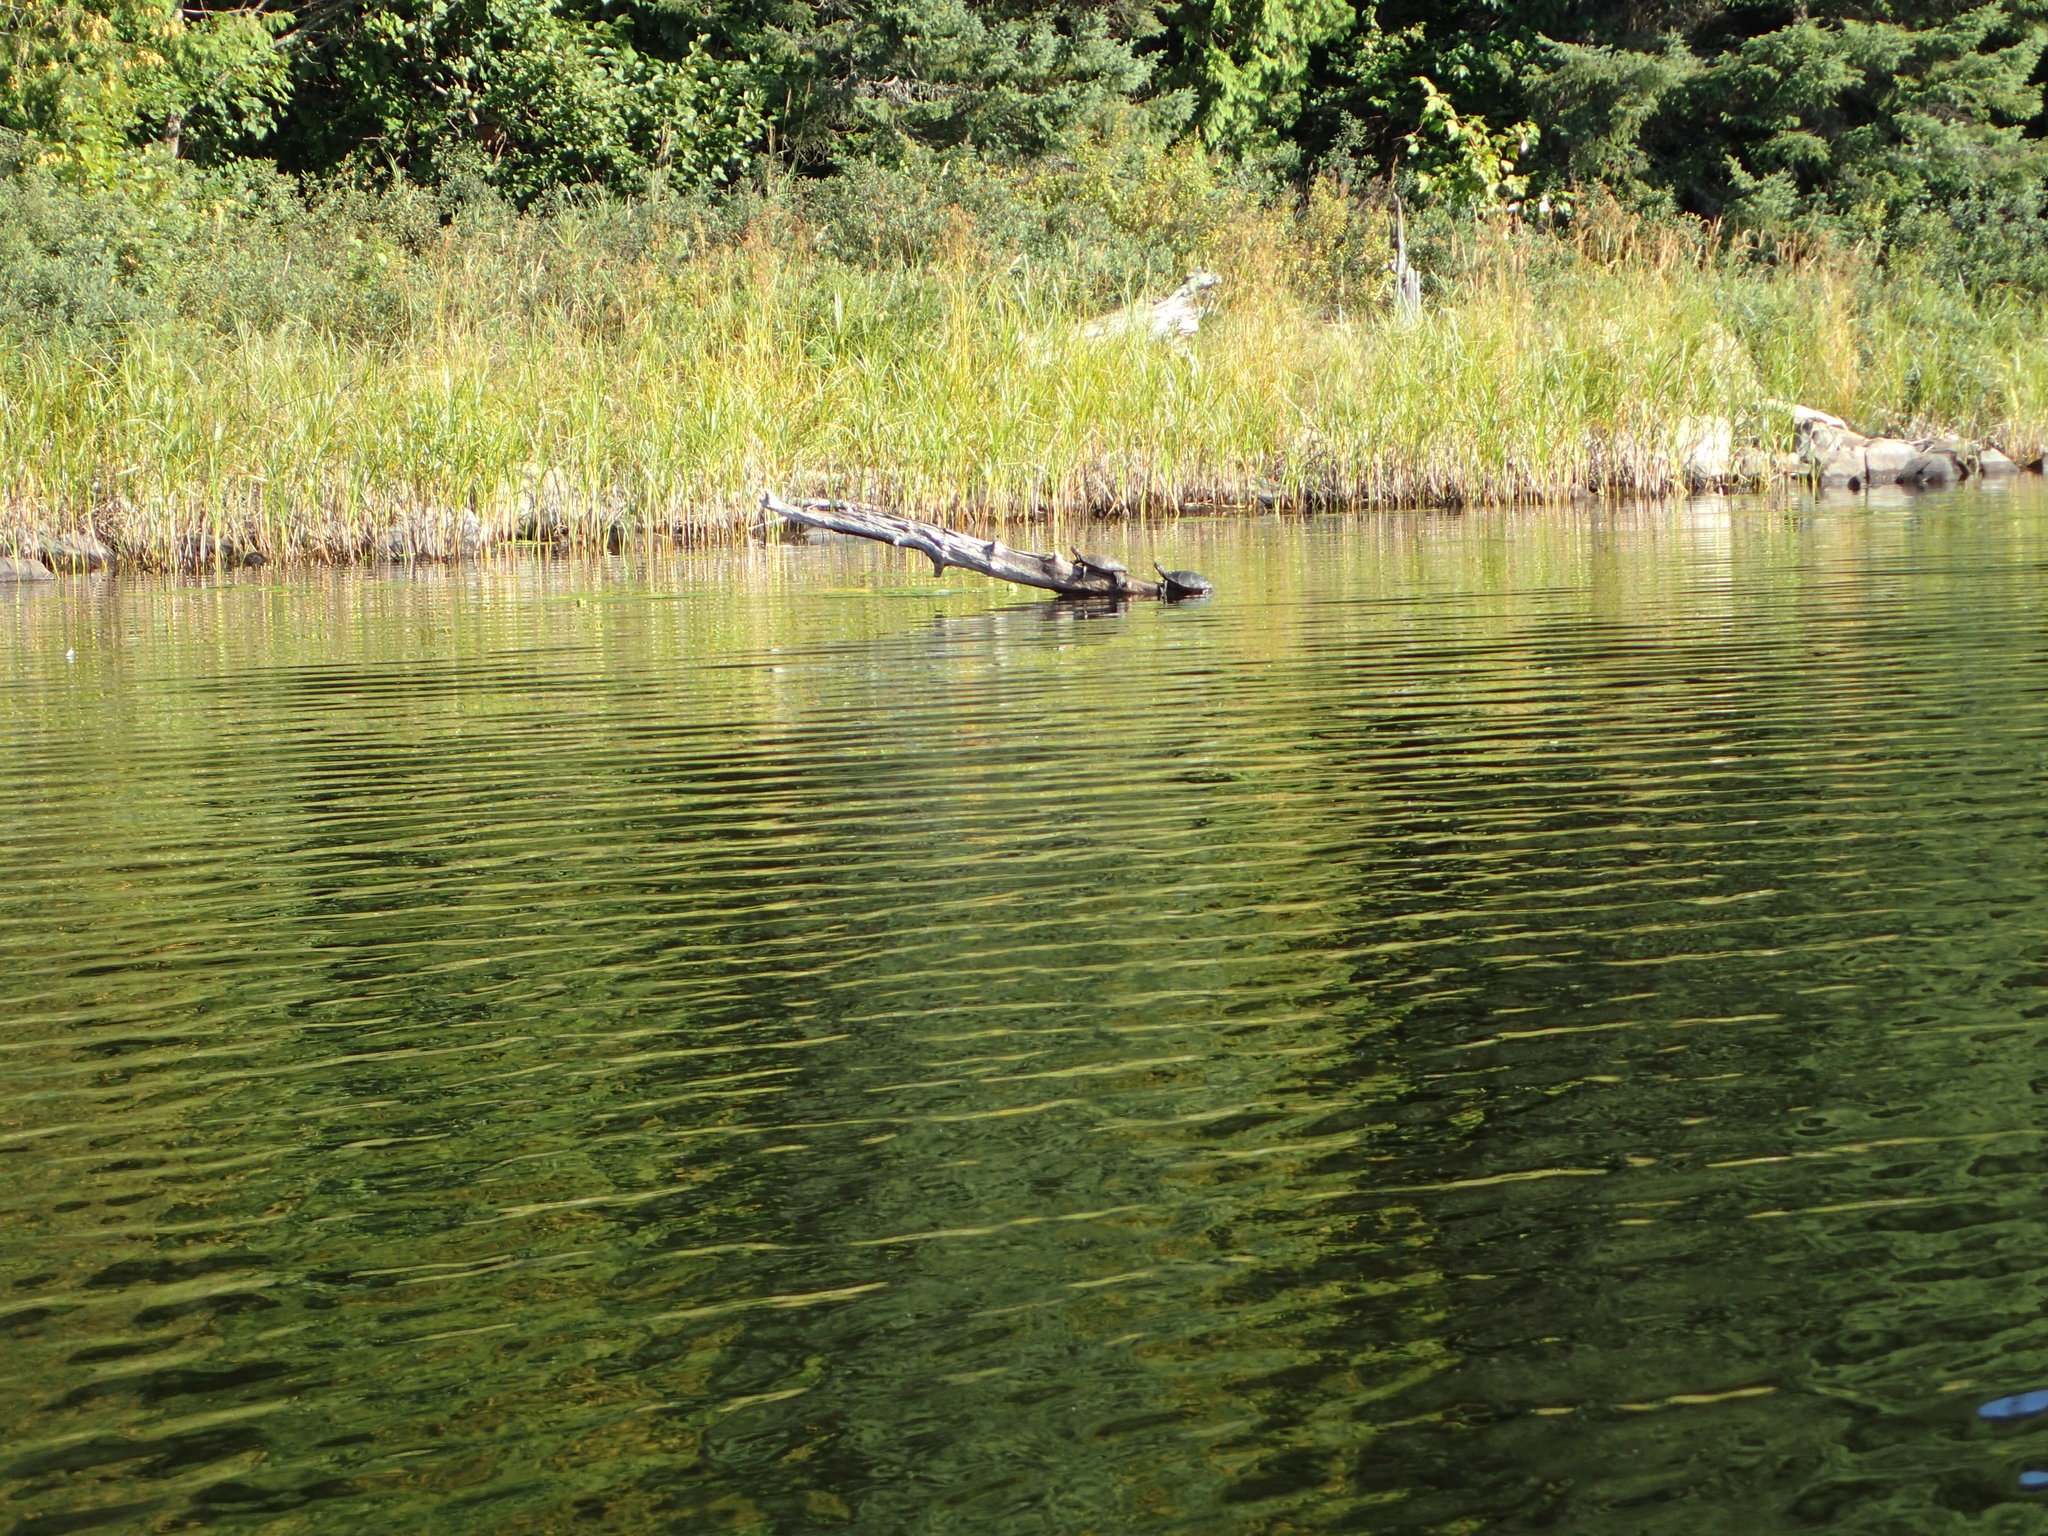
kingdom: Animalia
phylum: Chordata
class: Testudines
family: Emydidae
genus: Chrysemys
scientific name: Chrysemys picta
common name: Painted turtle
